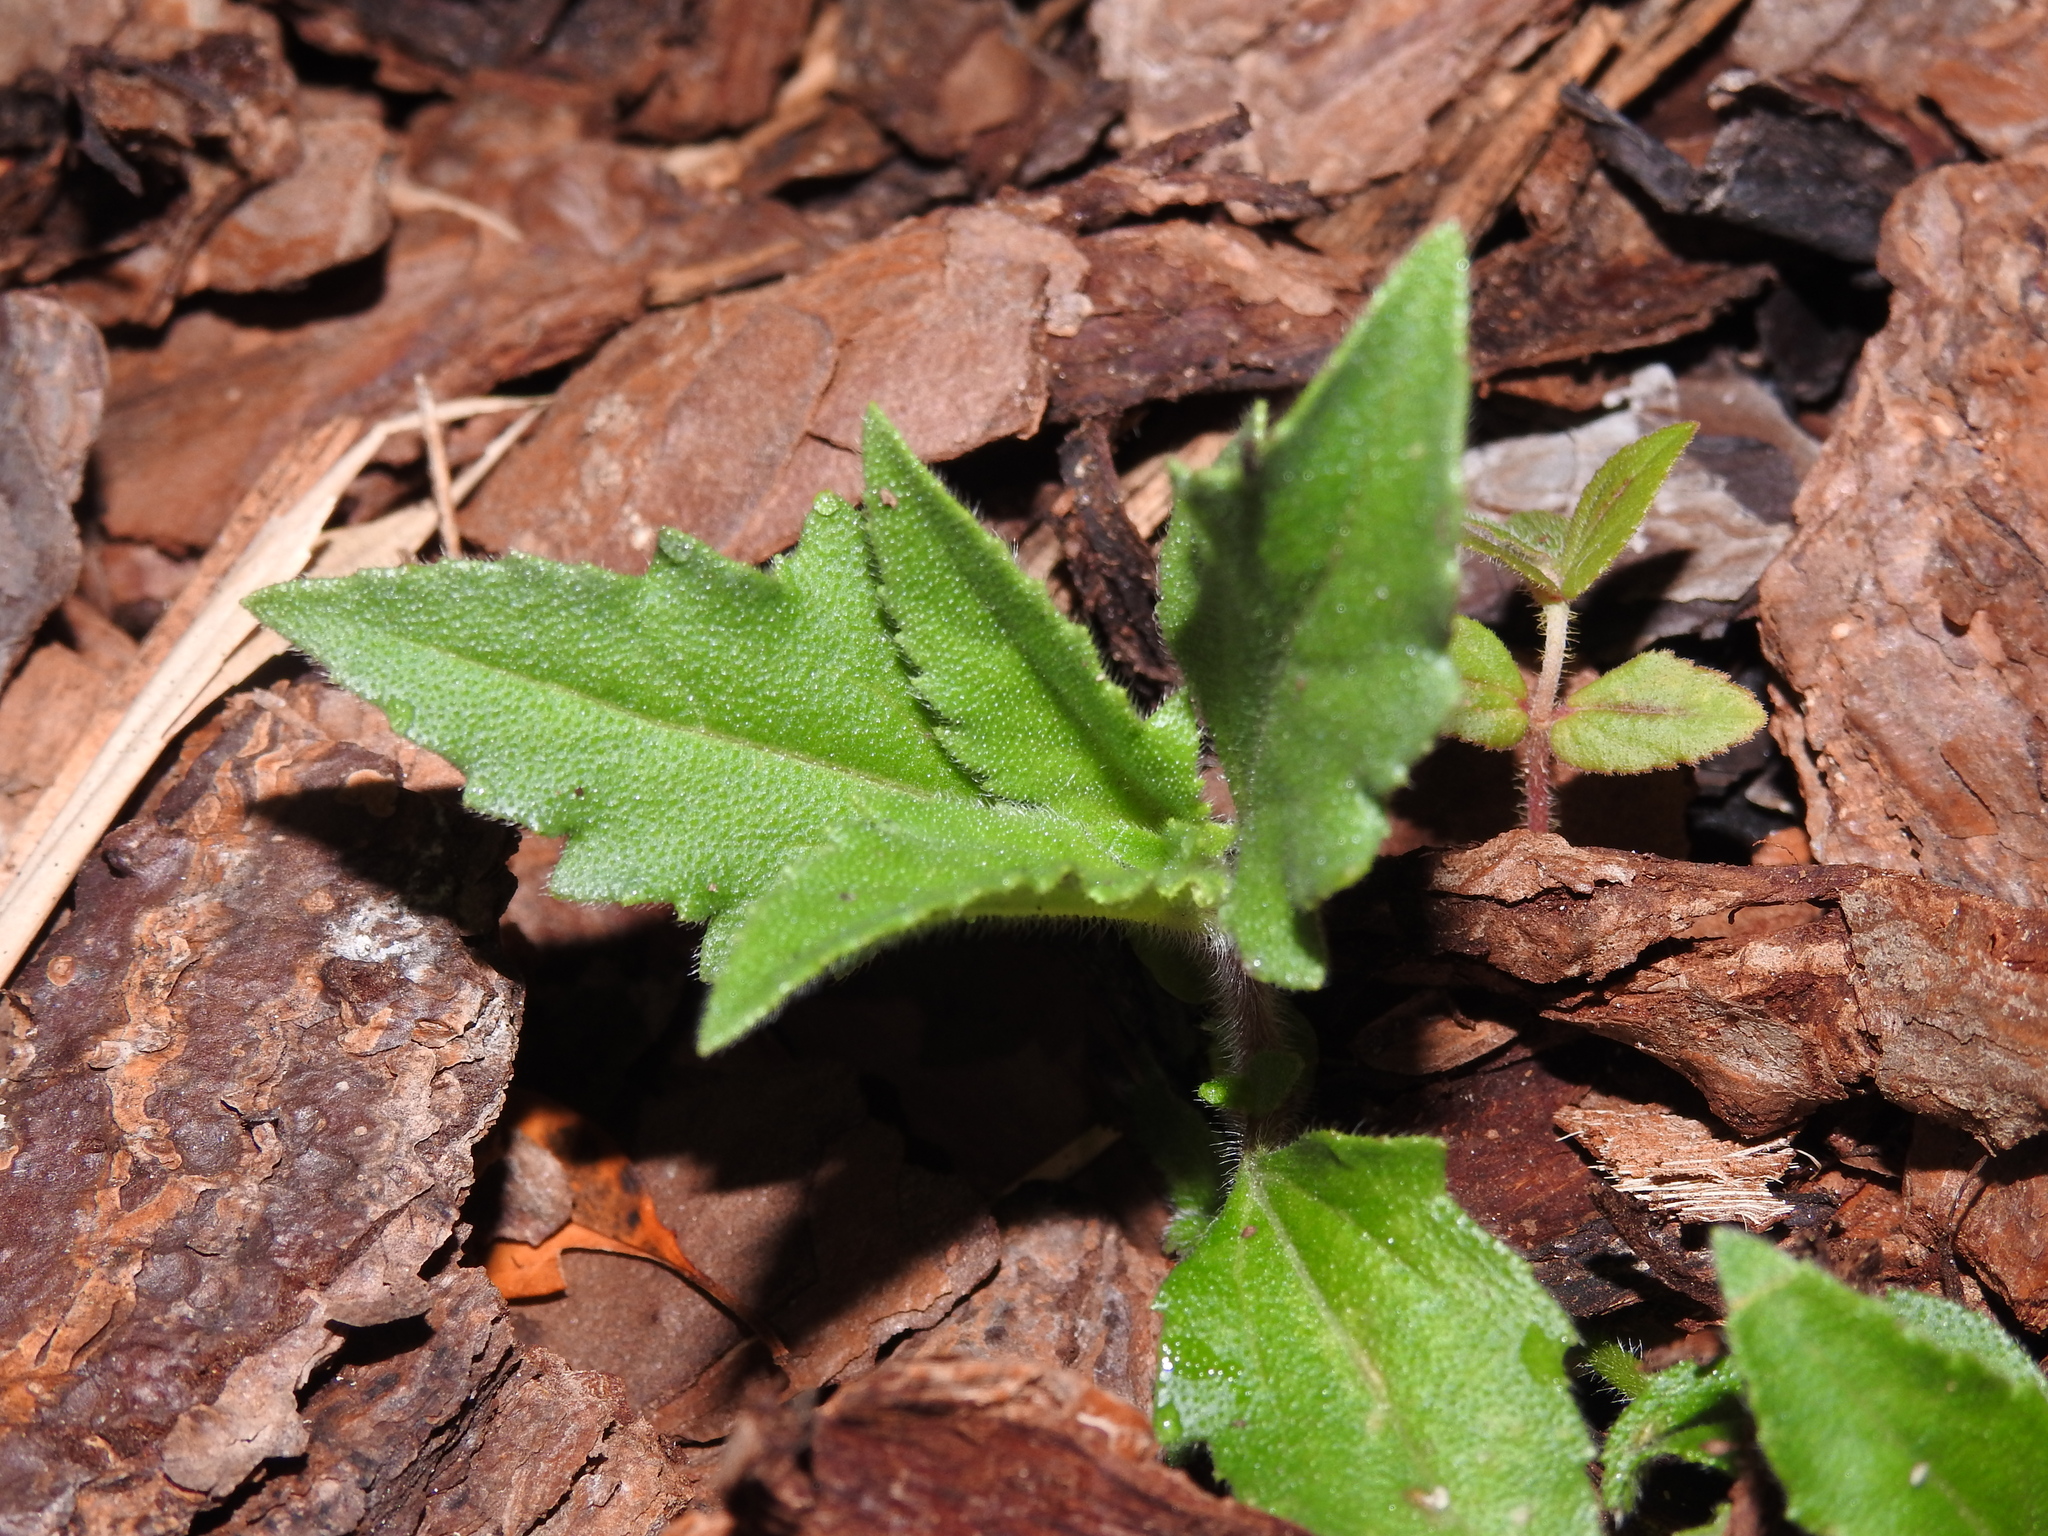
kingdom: Plantae
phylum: Tracheophyta
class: Magnoliopsida
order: Asterales
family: Asteraceae
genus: Tridax
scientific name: Tridax procumbens
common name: Coatbuttons
